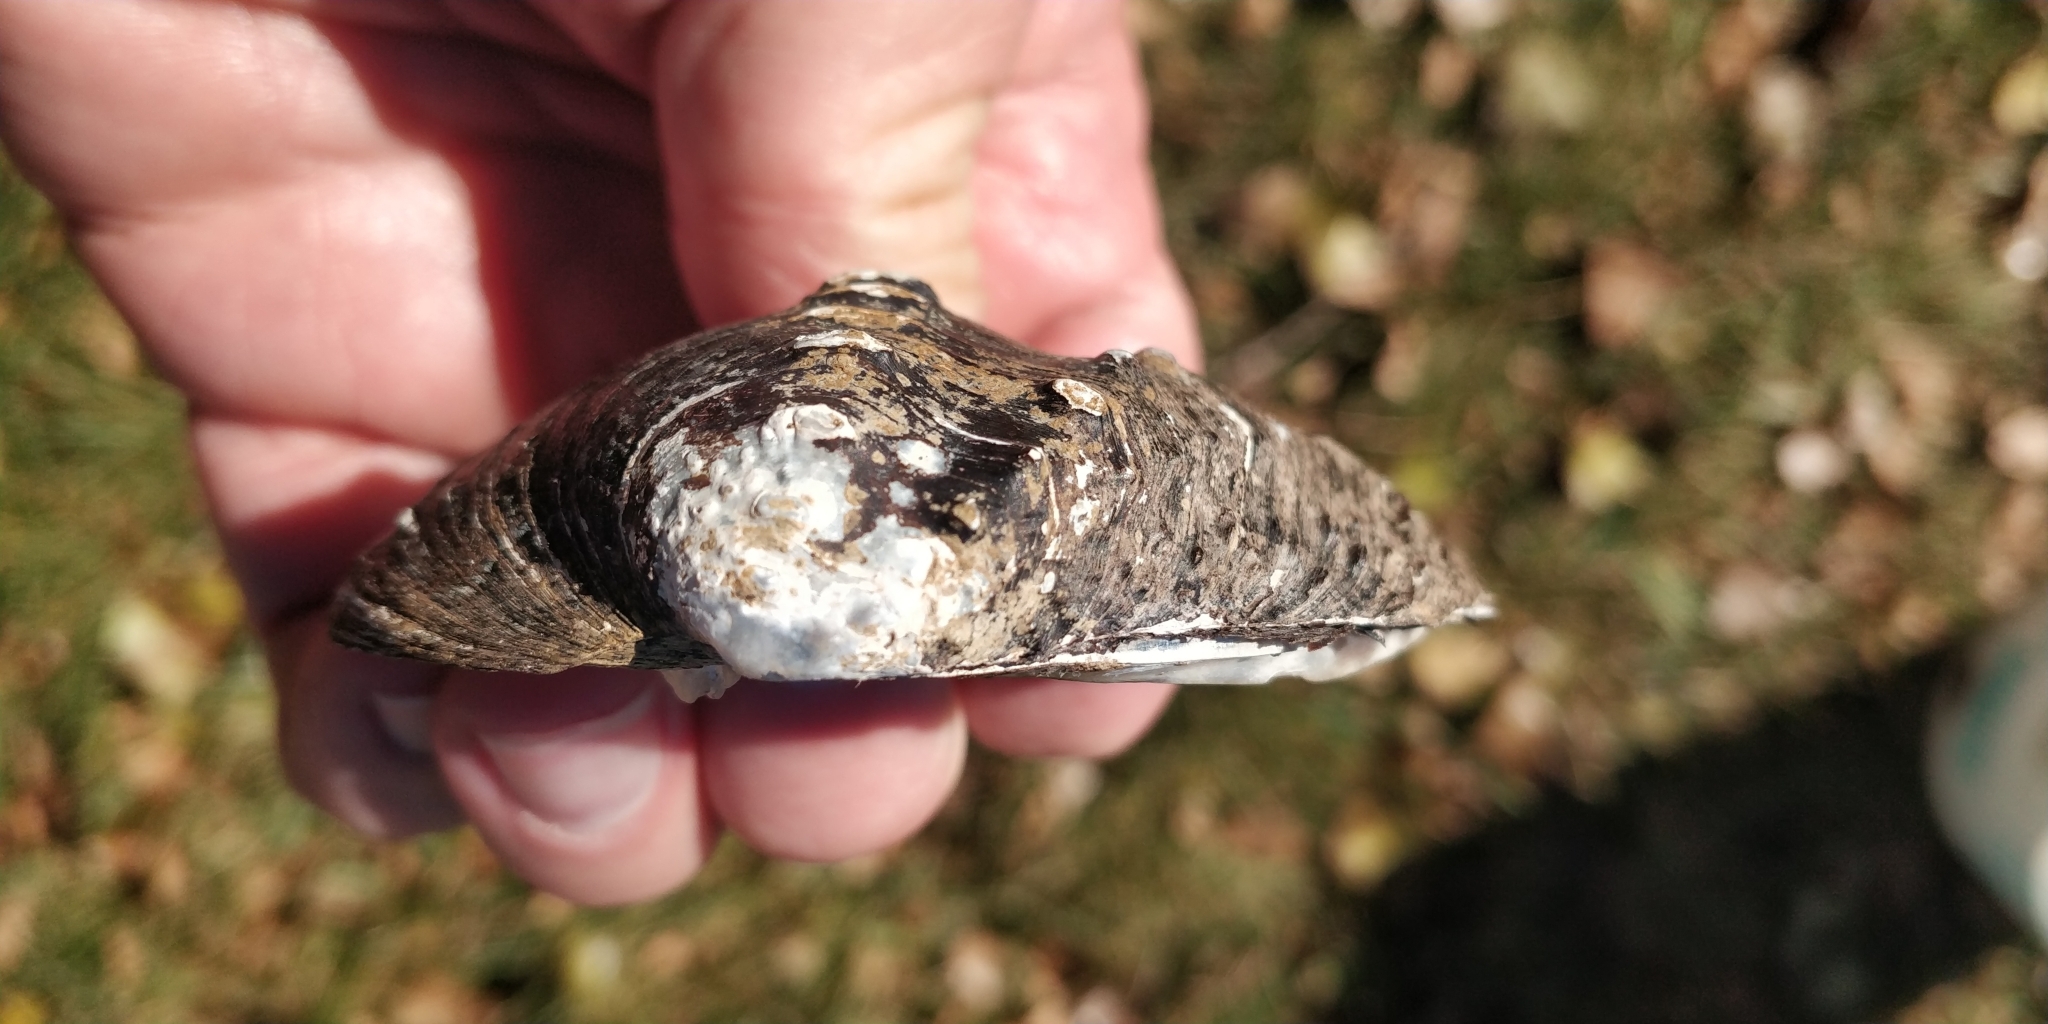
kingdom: Animalia
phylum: Mollusca
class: Bivalvia
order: Unionida
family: Unionidae
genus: Tritogonia
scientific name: Tritogonia nobilis
